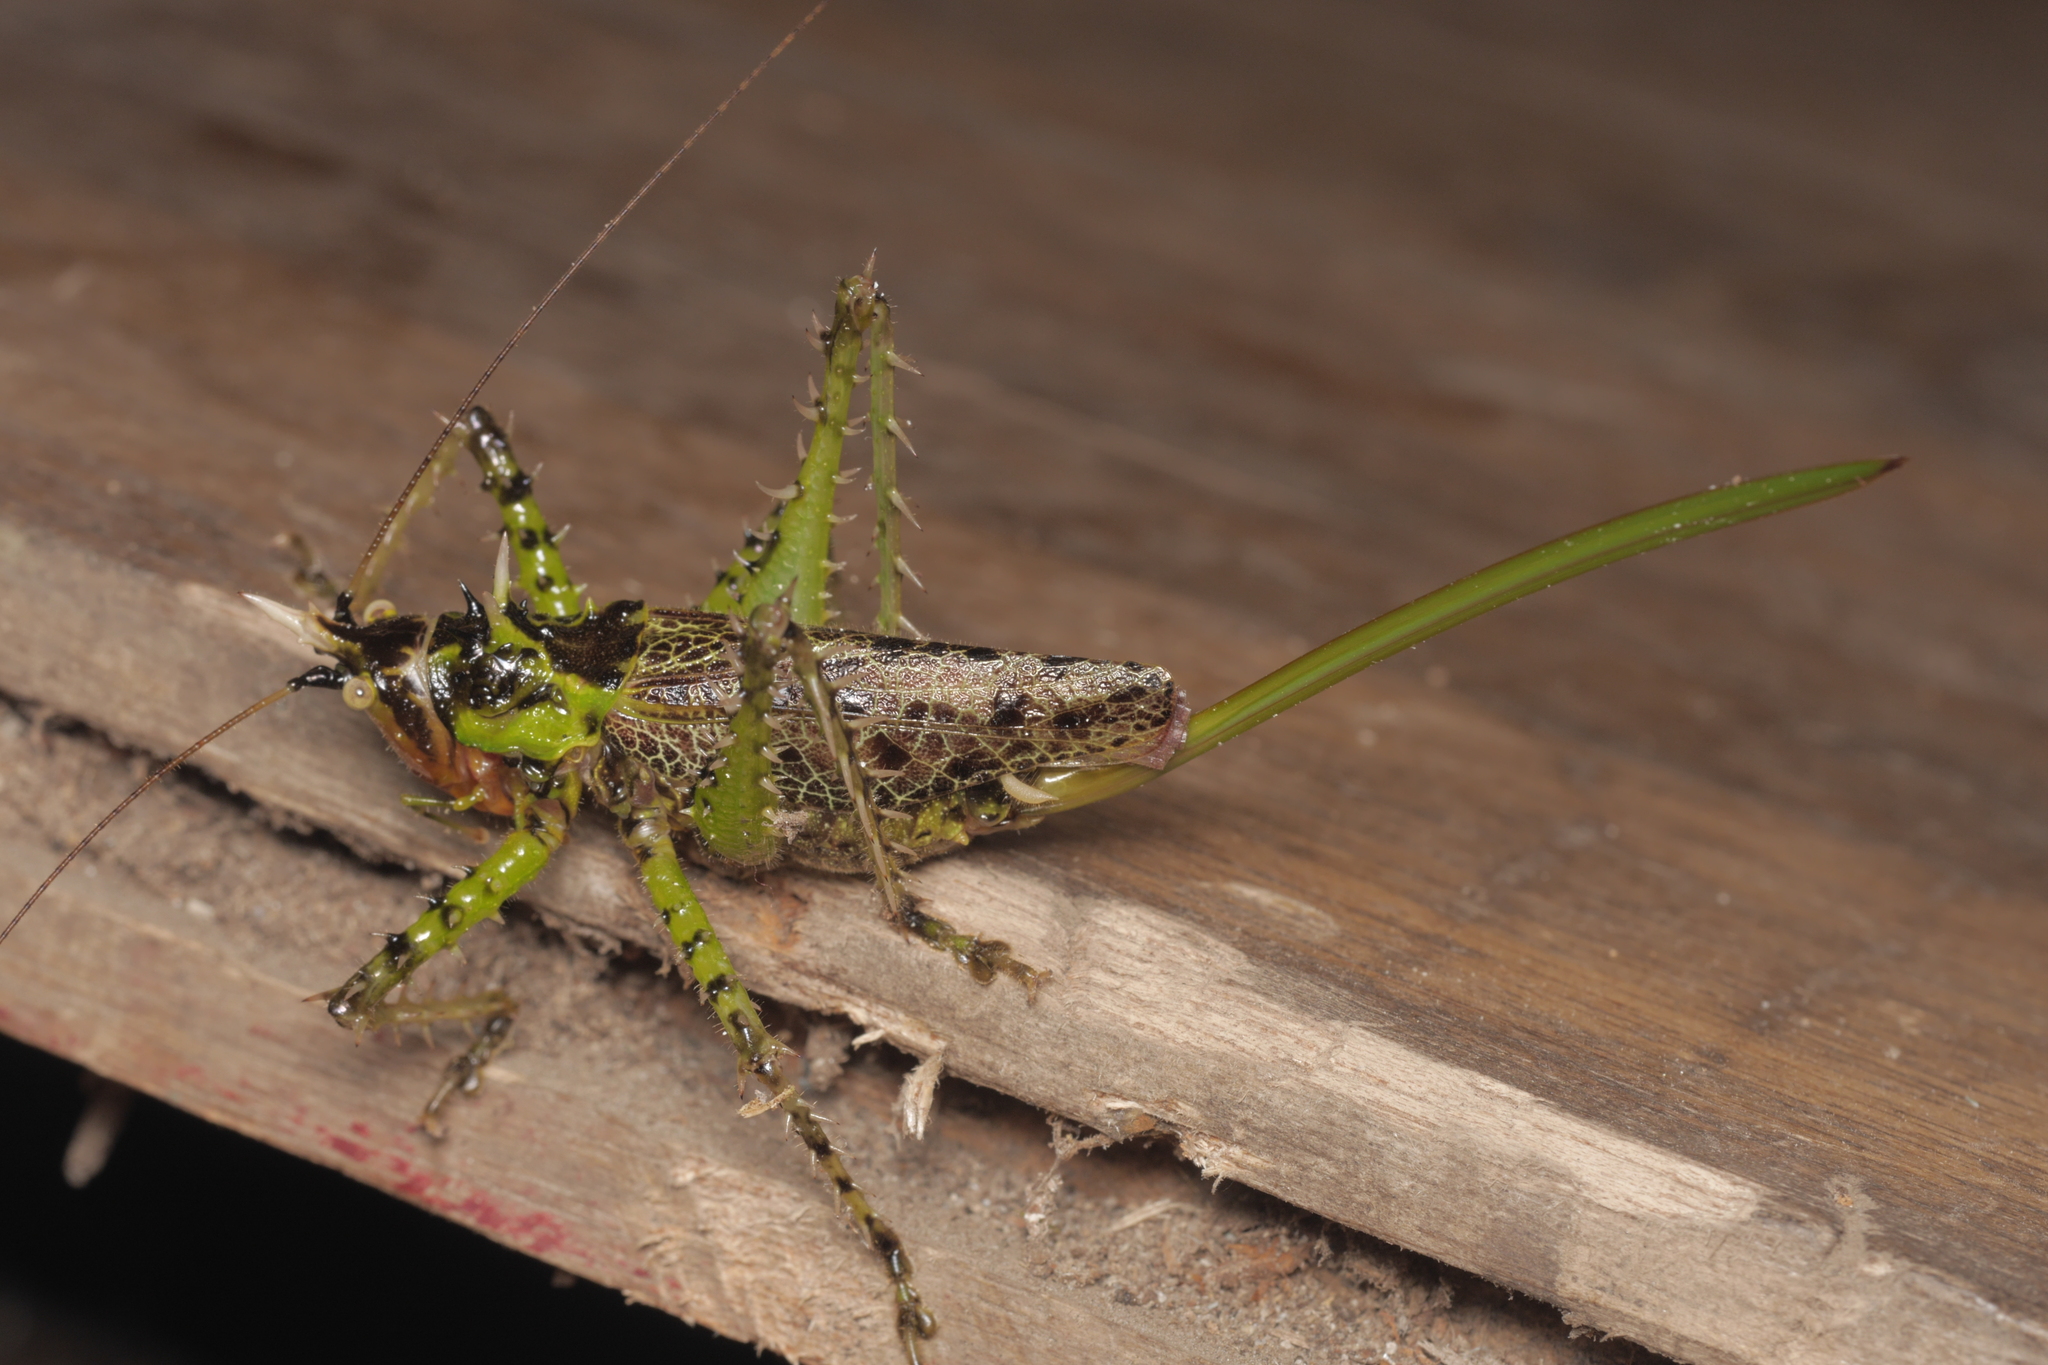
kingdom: Animalia
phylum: Arthropoda
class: Insecta
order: Orthoptera
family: Tettigoniidae
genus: Panacanthus
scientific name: Panacanthus varius
